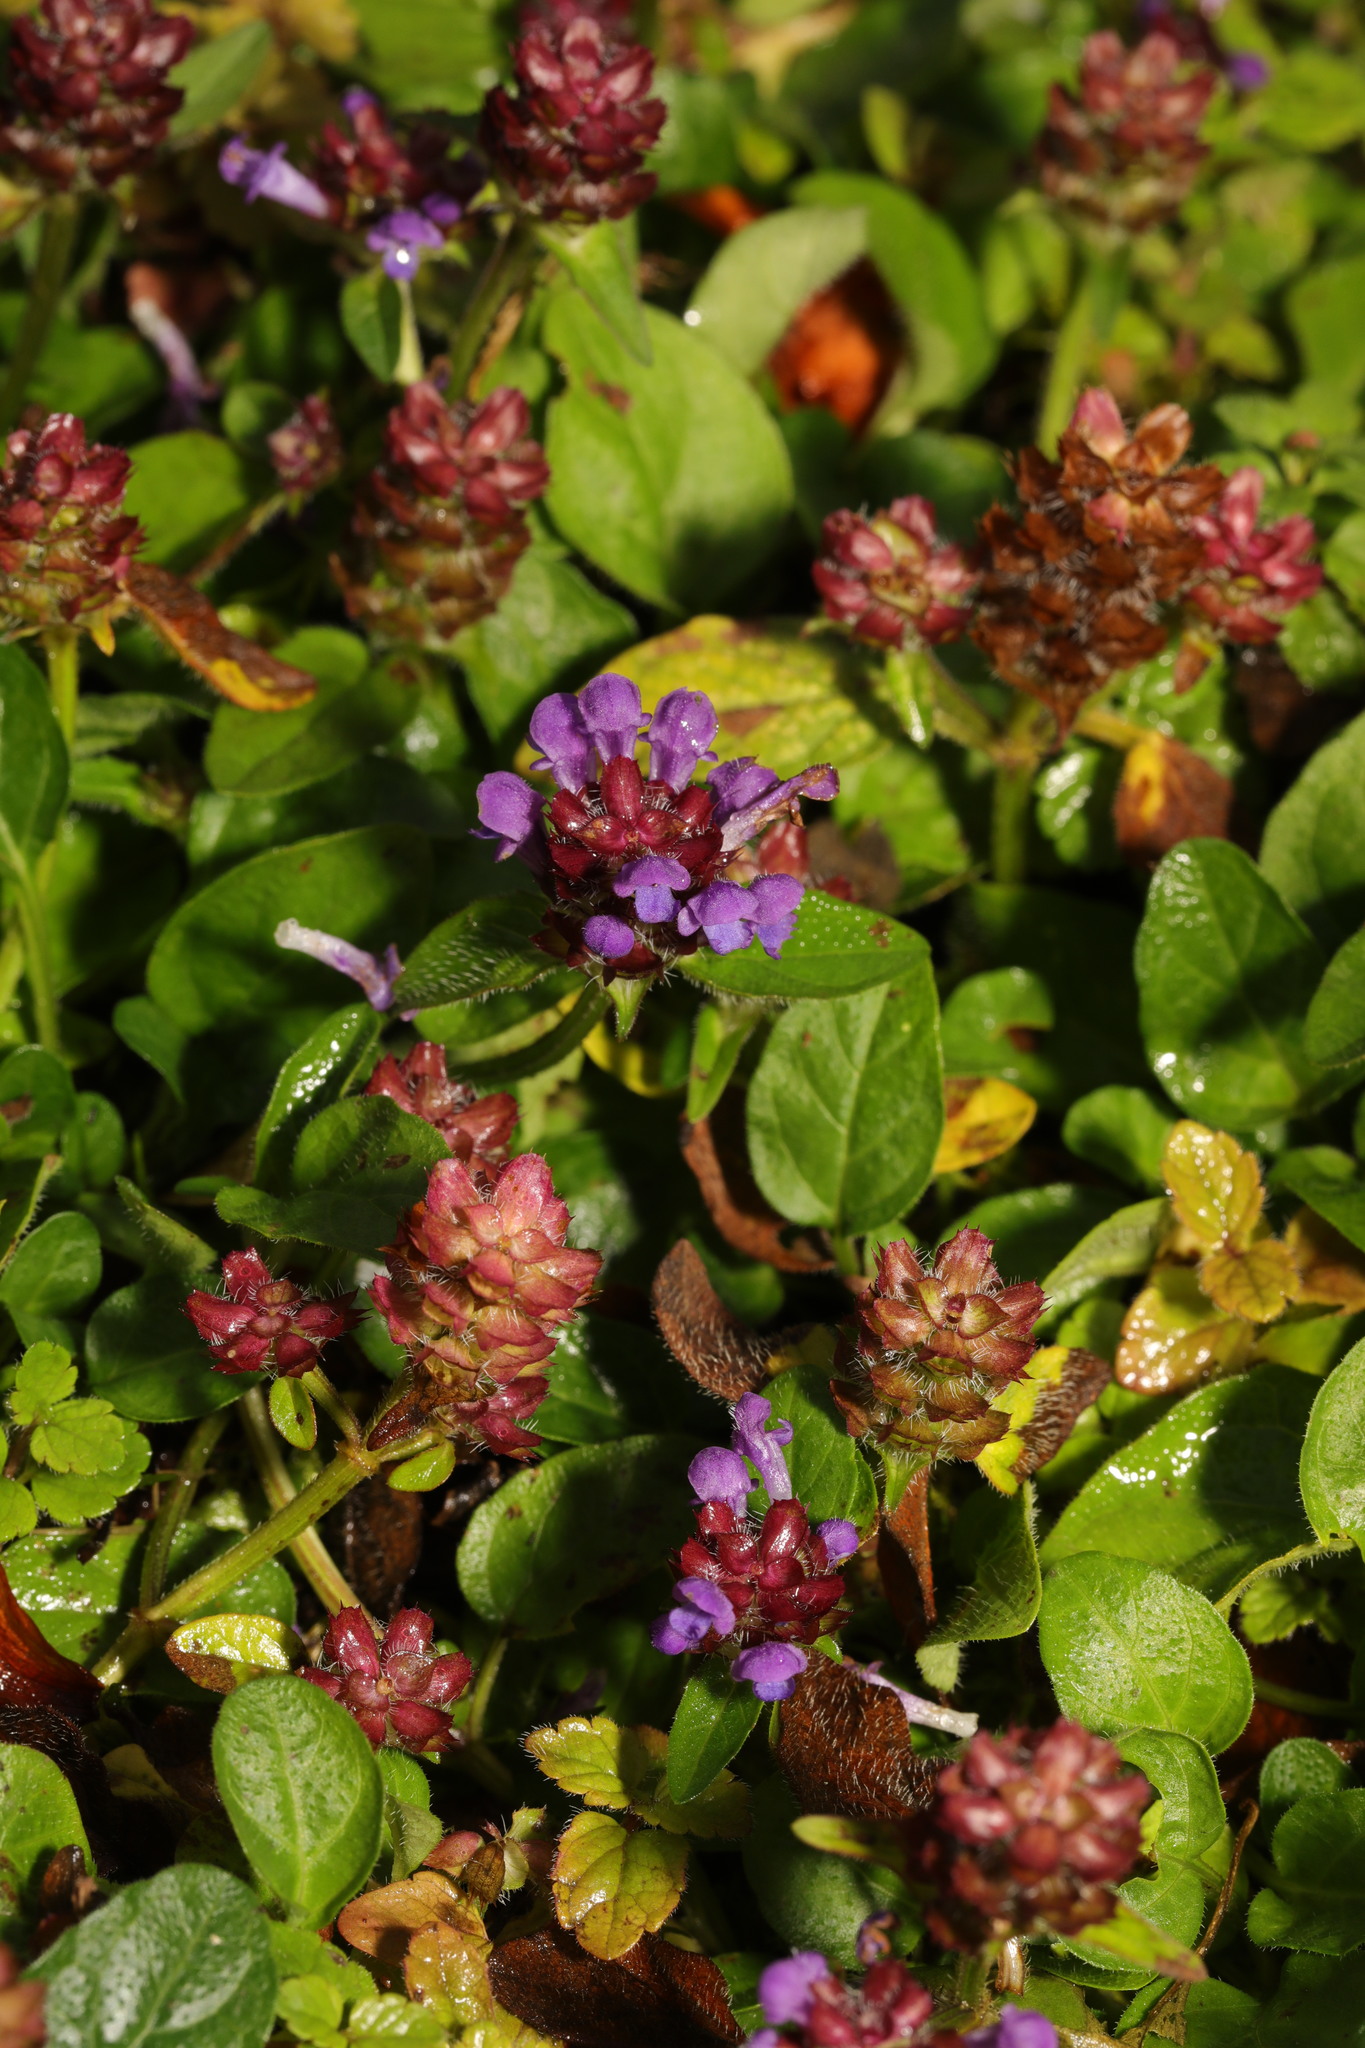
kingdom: Plantae
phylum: Tracheophyta
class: Magnoliopsida
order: Lamiales
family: Lamiaceae
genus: Prunella
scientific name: Prunella vulgaris
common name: Heal-all
